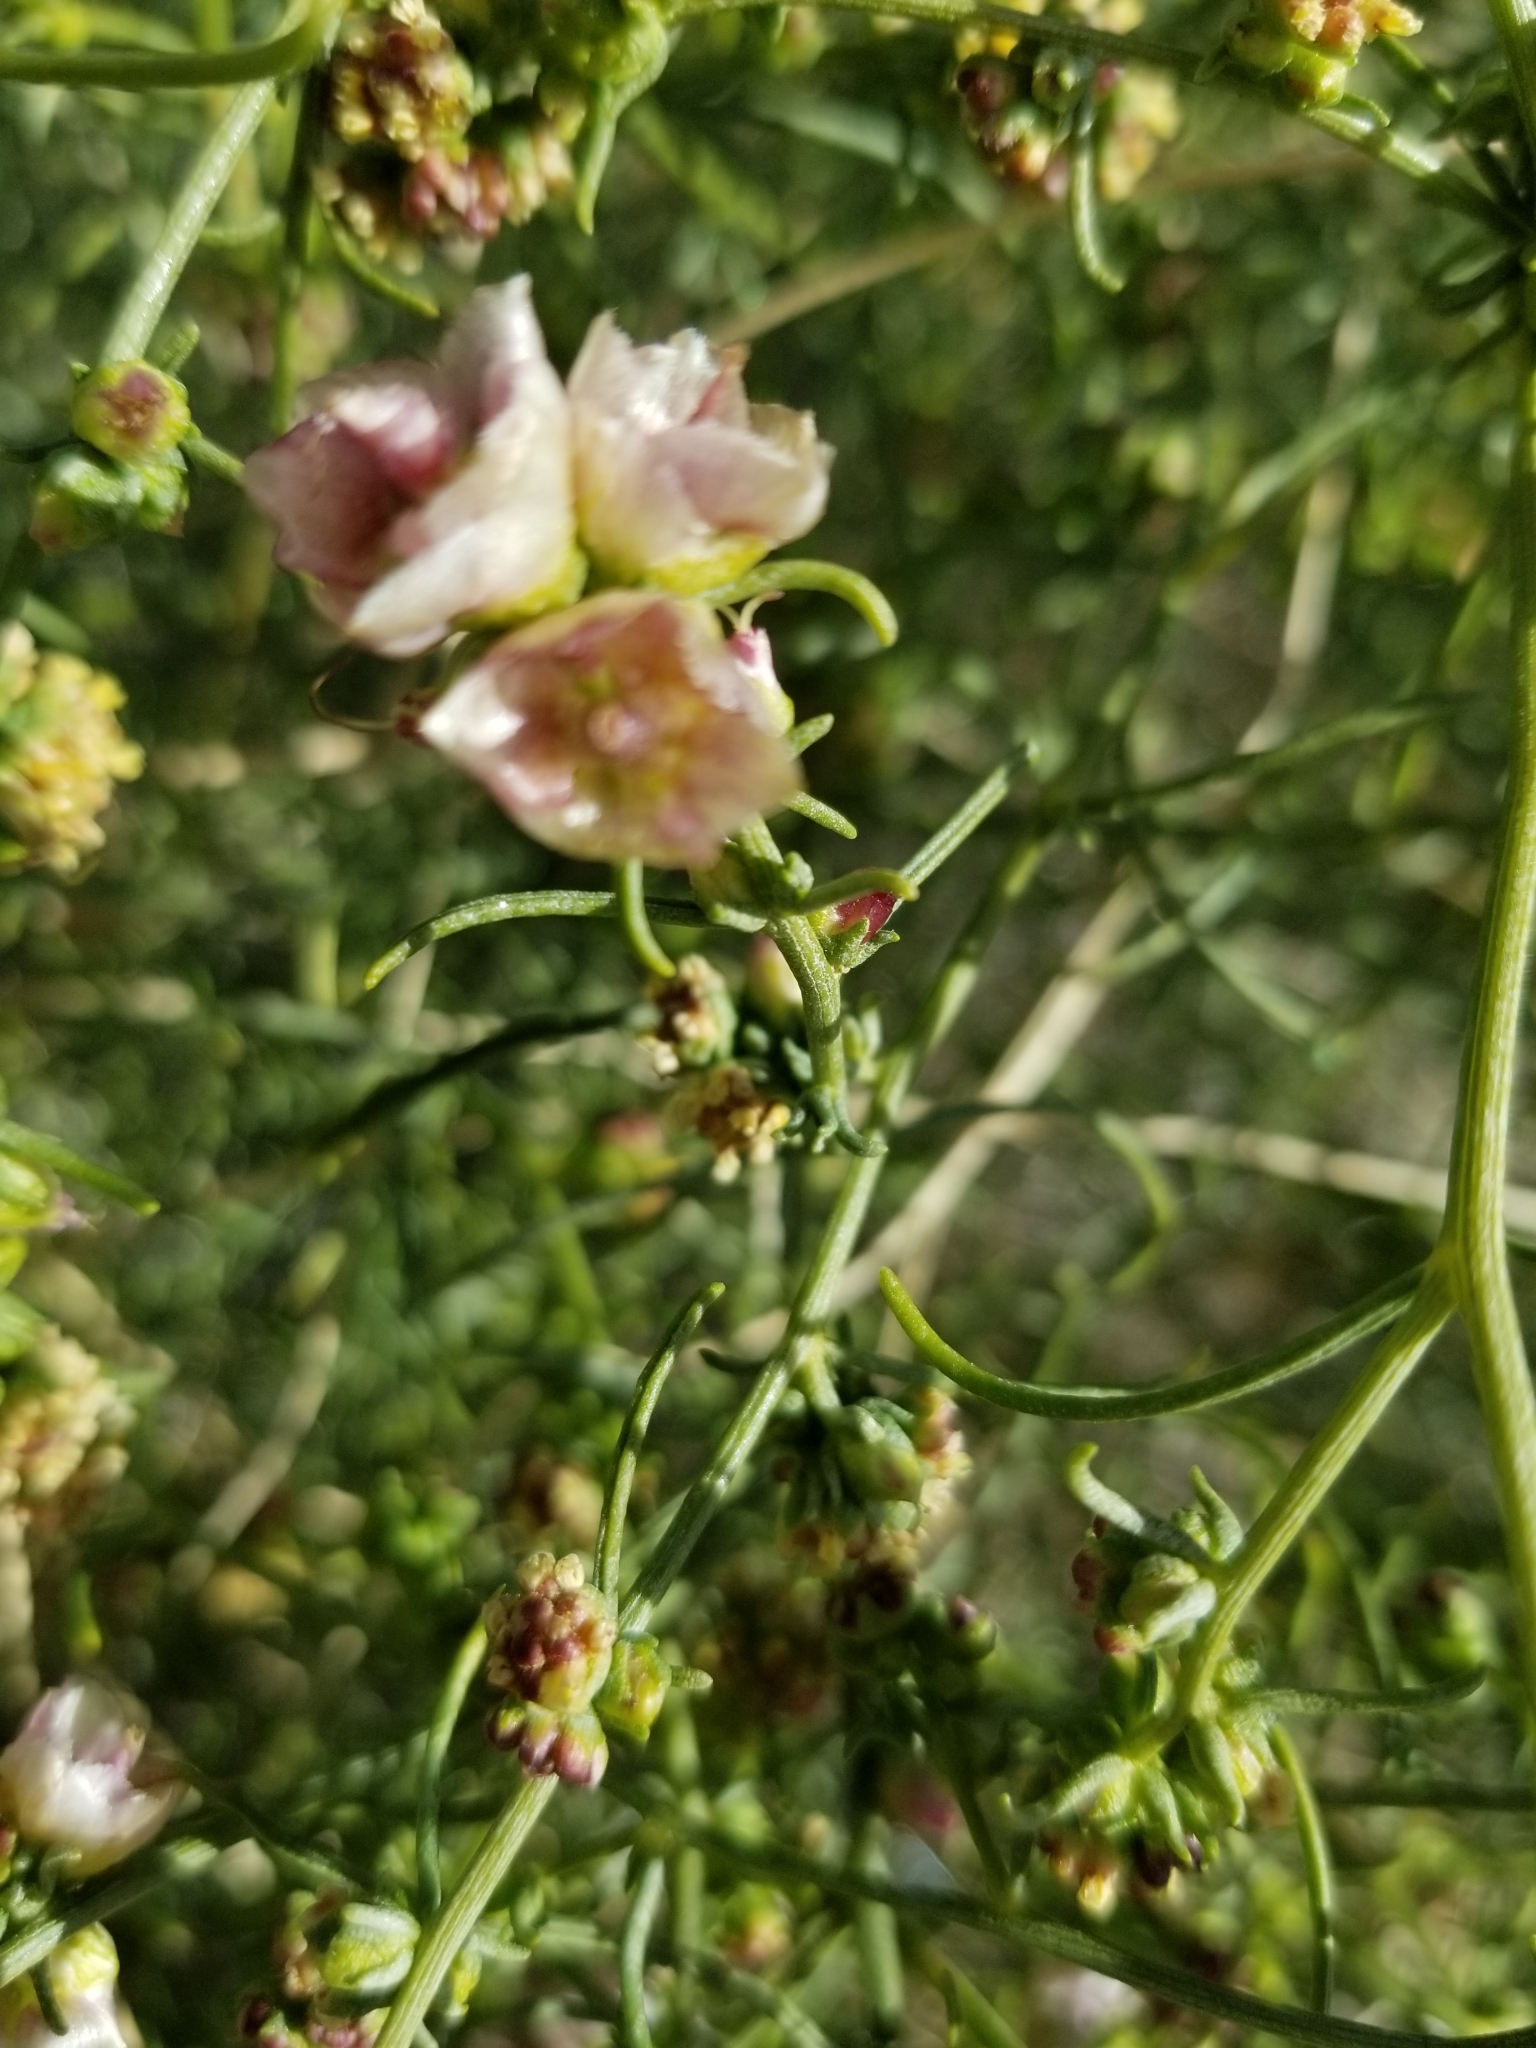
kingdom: Plantae
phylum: Tracheophyta
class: Magnoliopsida
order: Asterales
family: Asteraceae
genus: Ambrosia
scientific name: Ambrosia salsola
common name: Burrobrush
